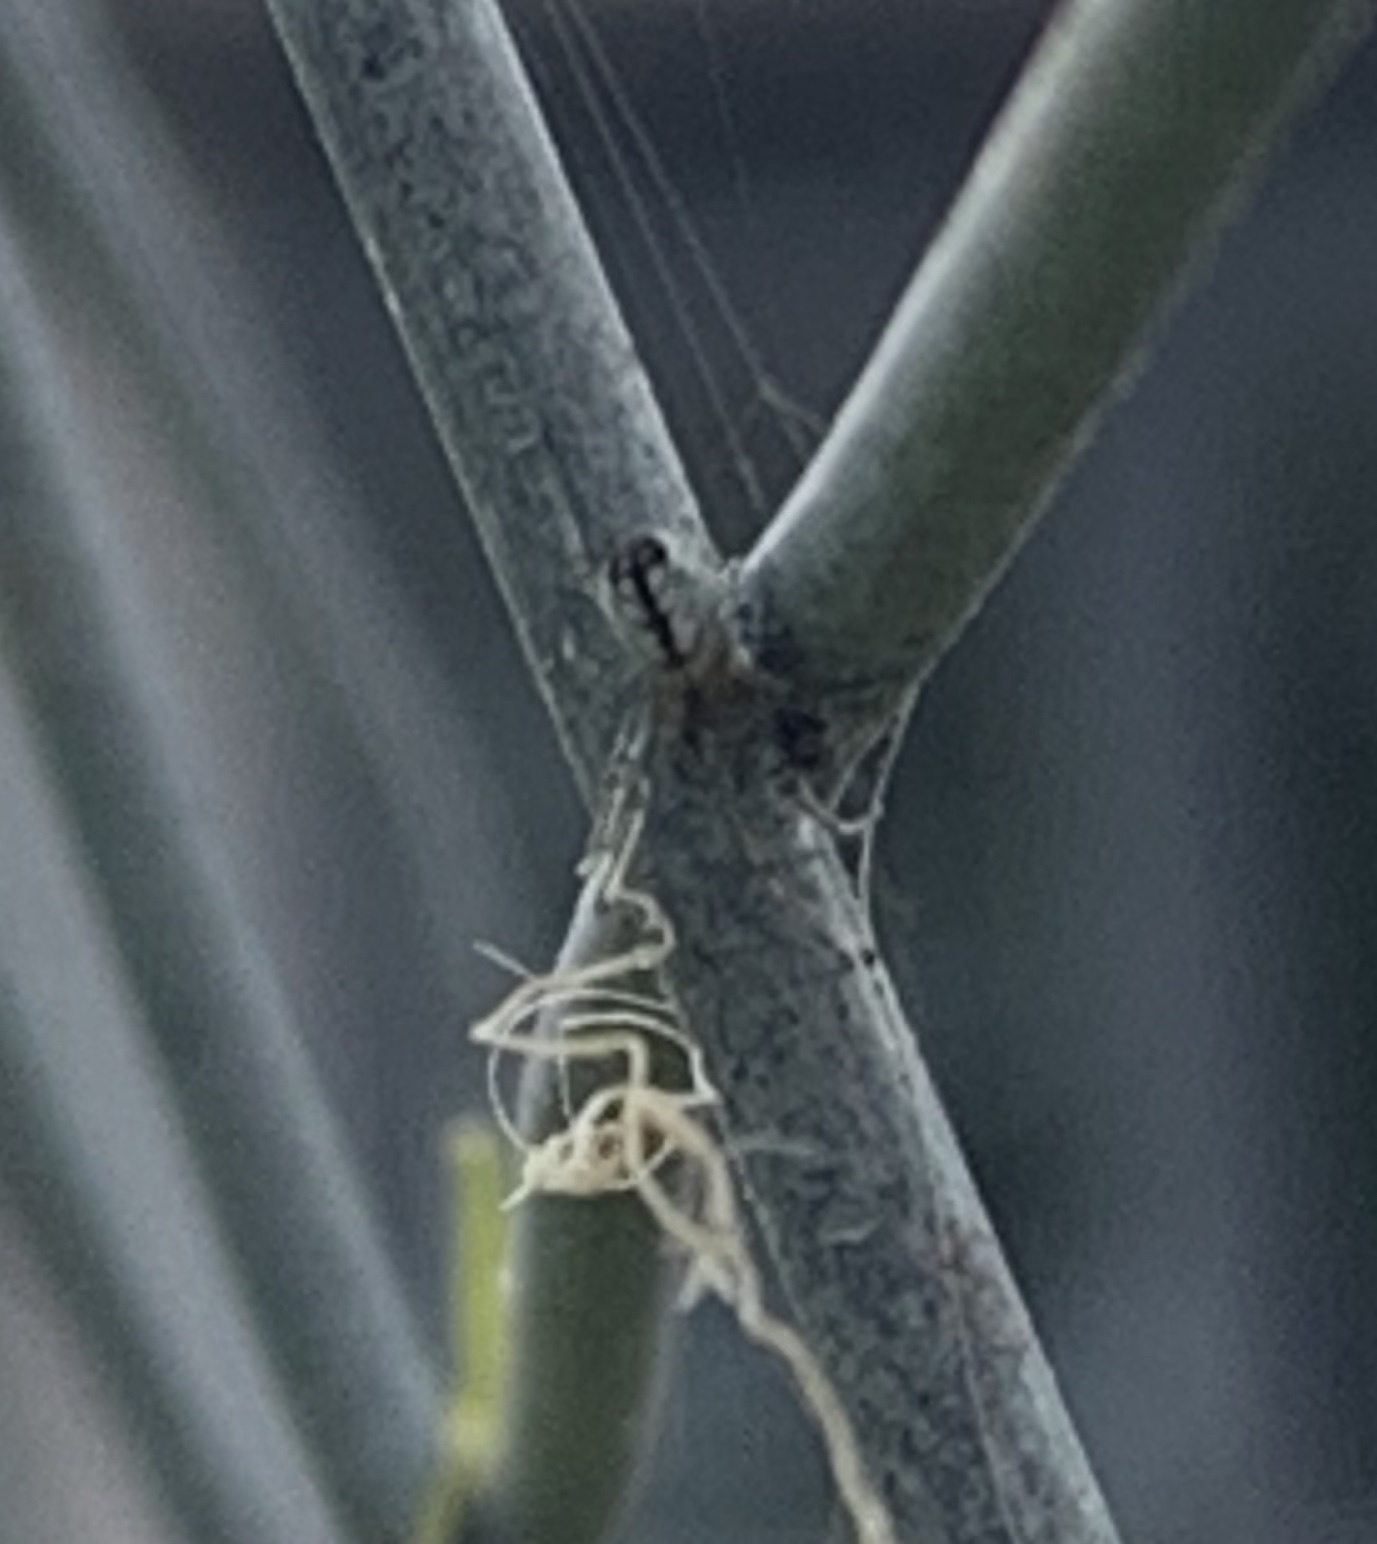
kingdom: Animalia
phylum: Arthropoda
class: Arachnida
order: Araneae
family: Tetragnathidae
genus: Leucauge
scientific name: Leucauge venusta
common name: Longjawed orb weavers
